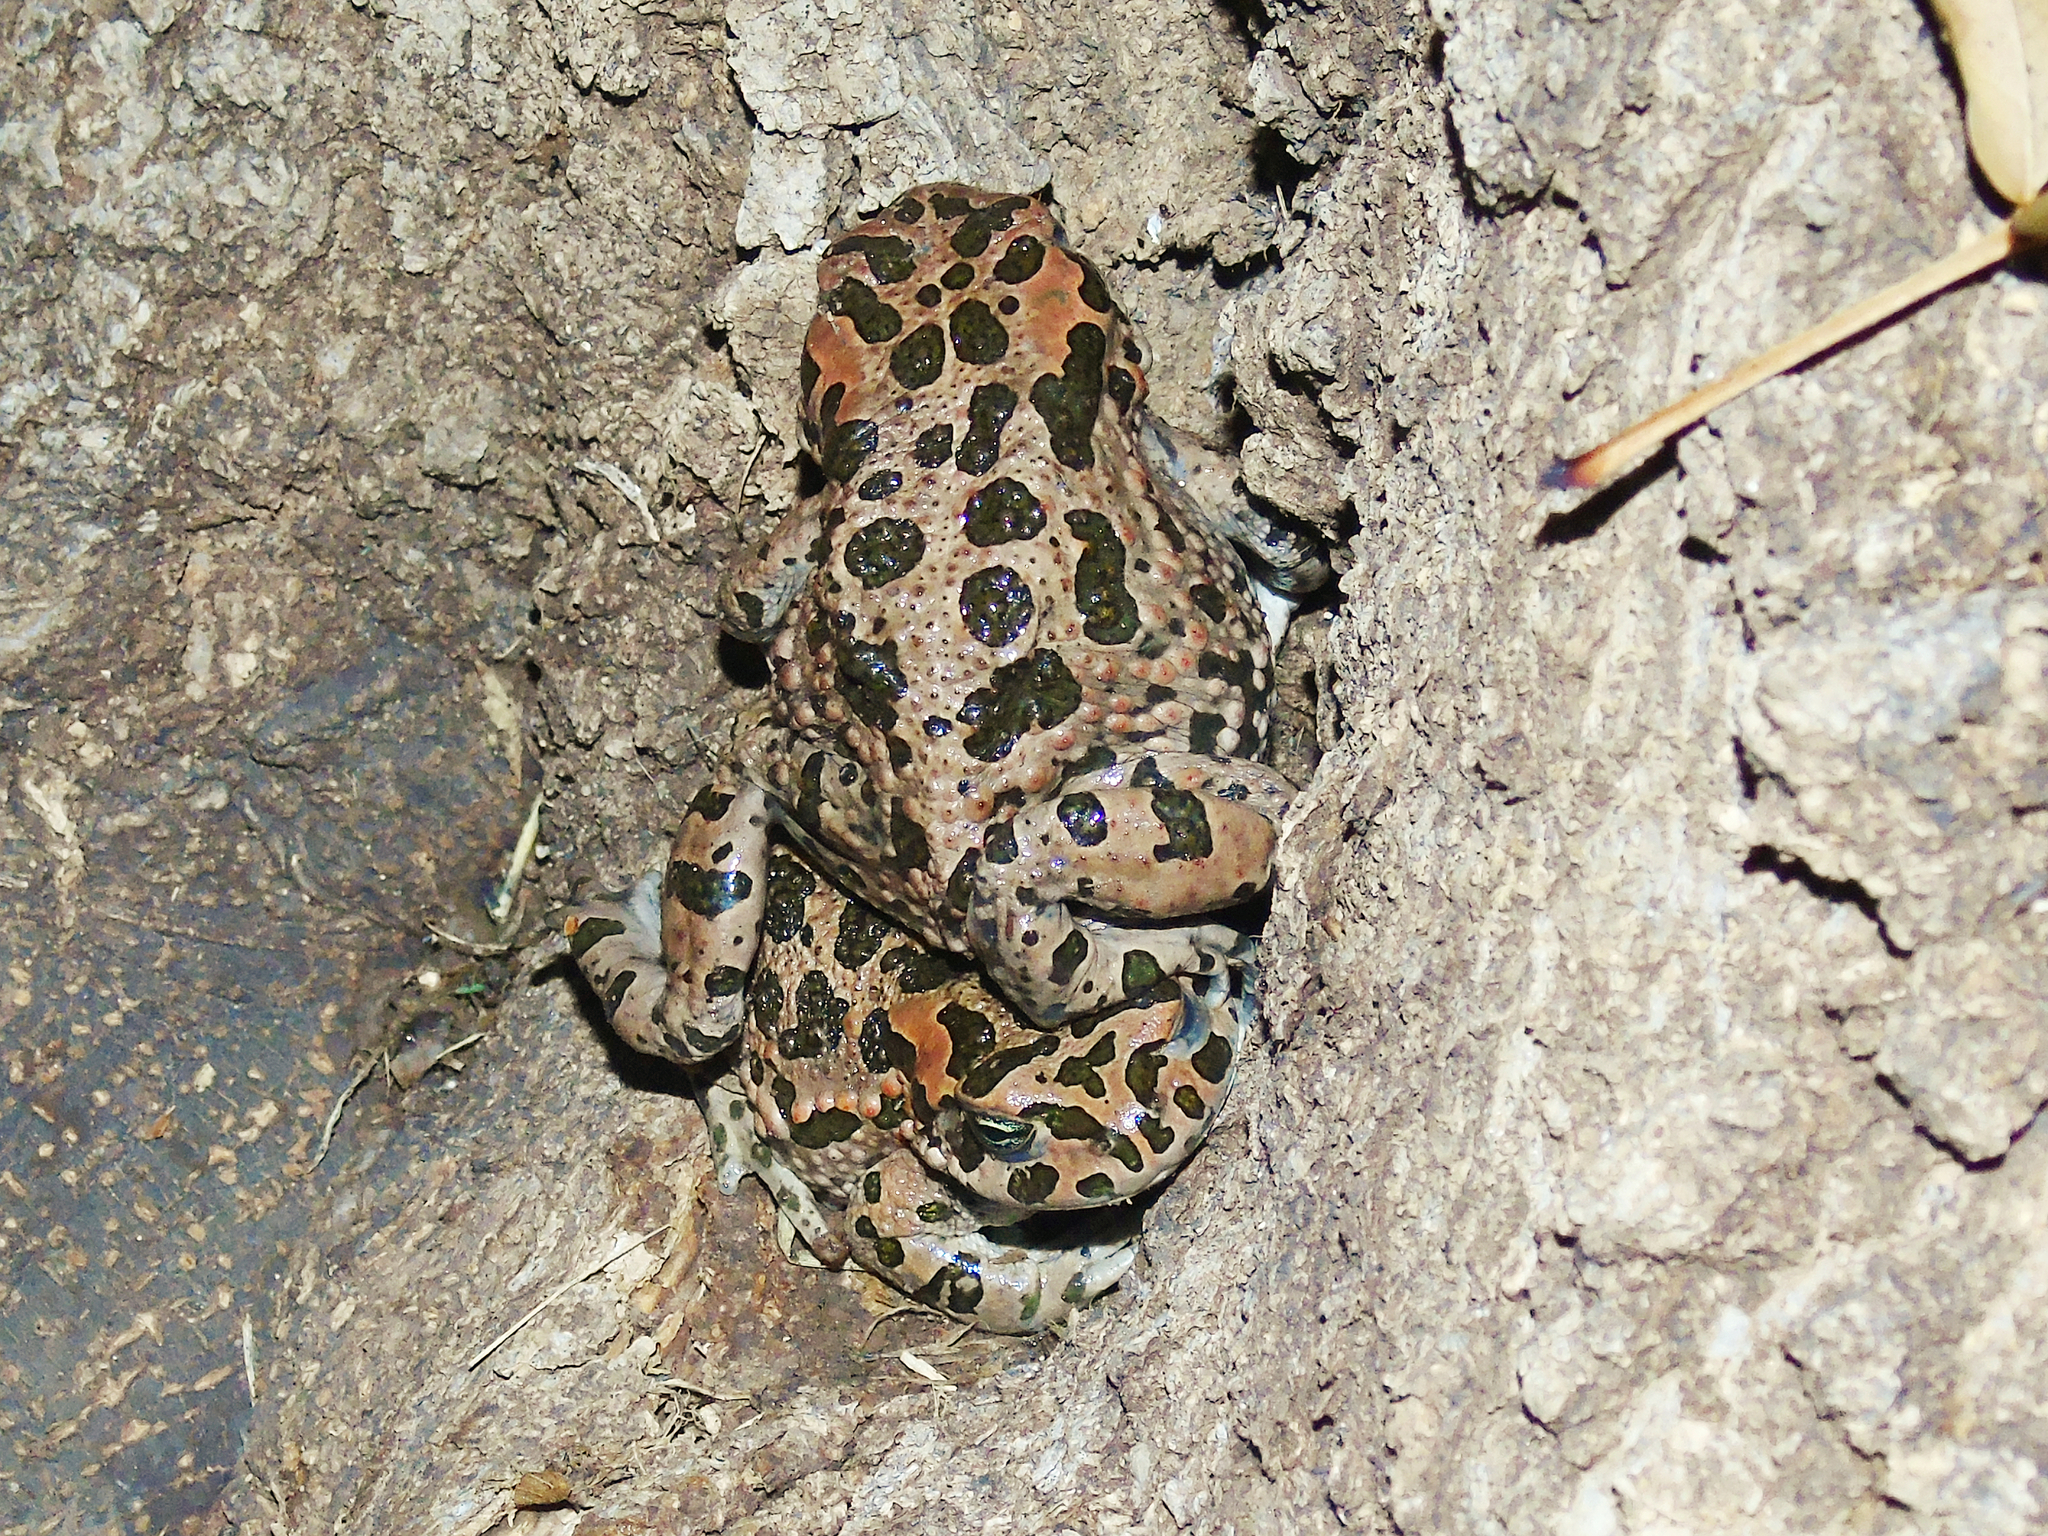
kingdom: Animalia
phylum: Chordata
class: Amphibia
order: Anura
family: Bufonidae
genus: Bufotes
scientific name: Bufotes viridis
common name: European green toad
